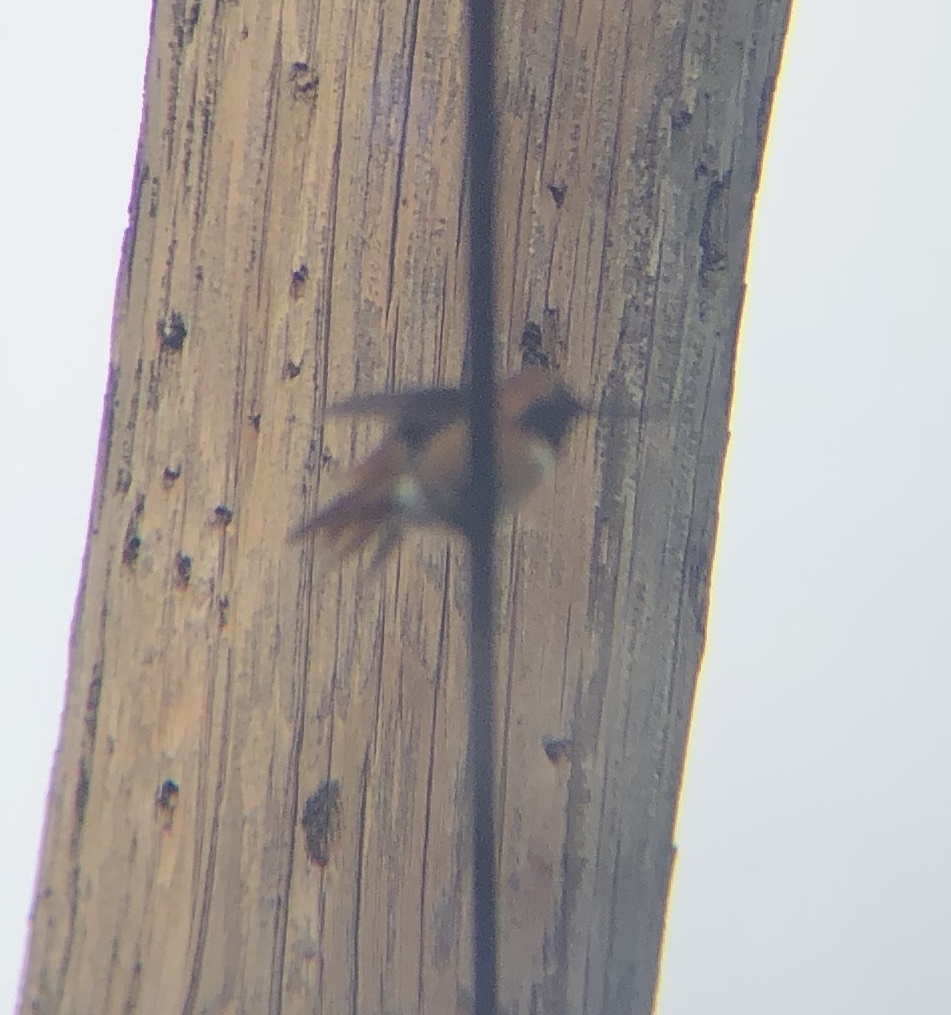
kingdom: Animalia
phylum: Chordata
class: Aves
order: Apodiformes
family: Trochilidae
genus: Selasphorus
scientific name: Selasphorus sasin
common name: Allen's hummingbird
